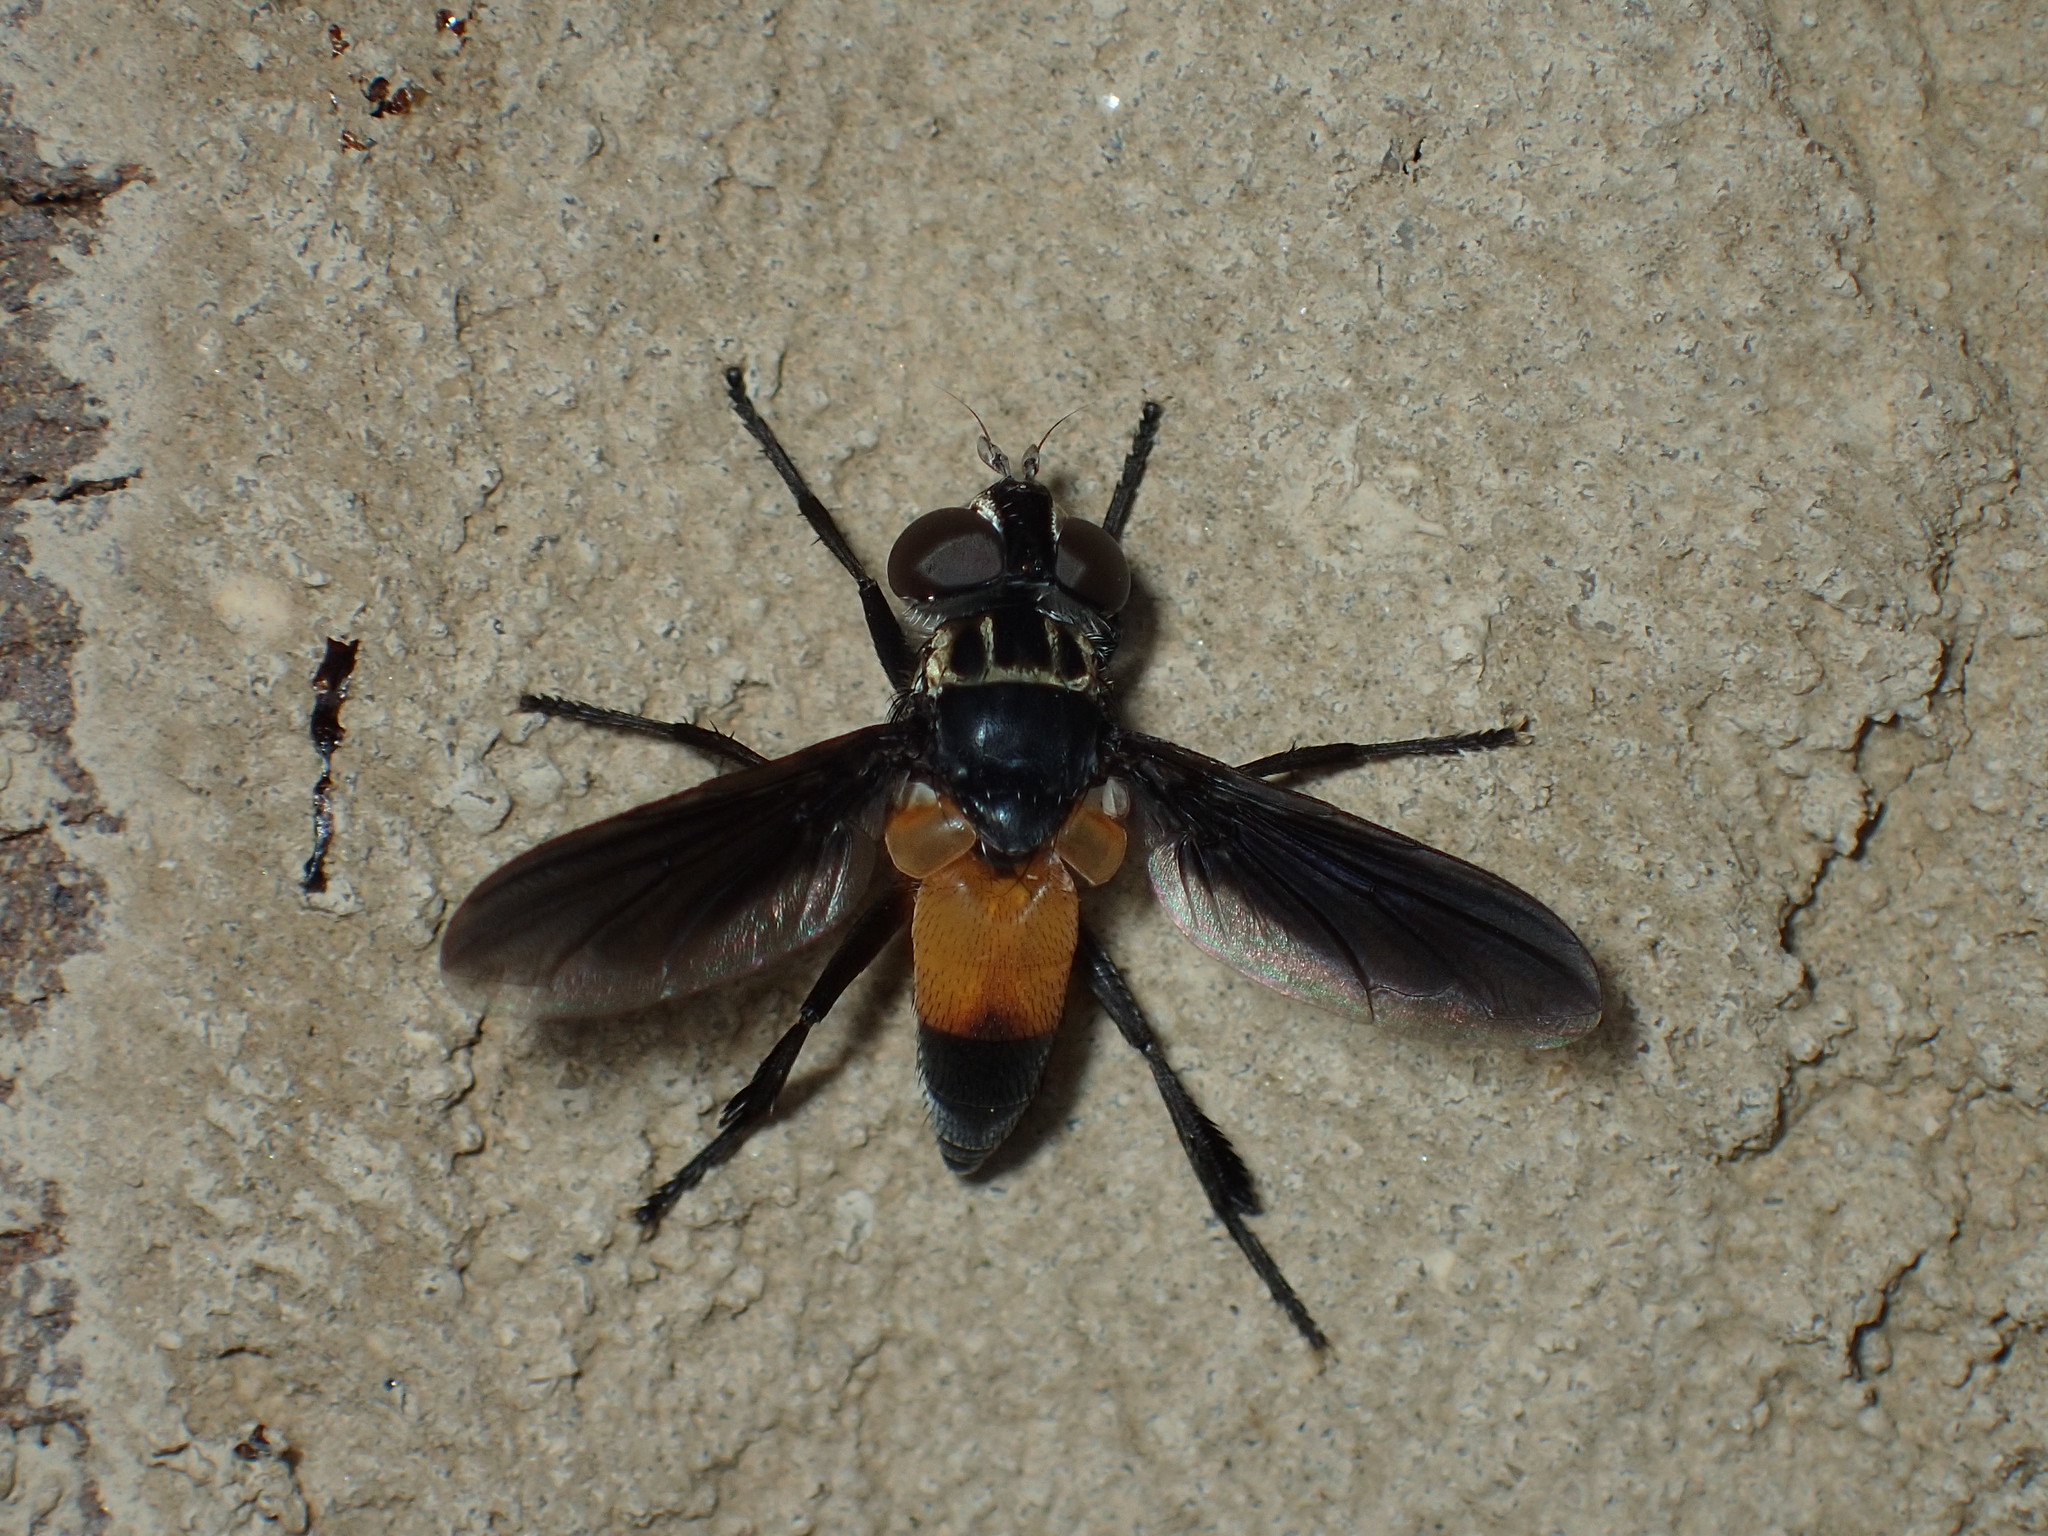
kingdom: Animalia
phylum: Arthropoda
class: Insecta
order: Diptera
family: Tachinidae
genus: Trichopoda
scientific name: Trichopoda pennipes
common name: Tachinid fly
